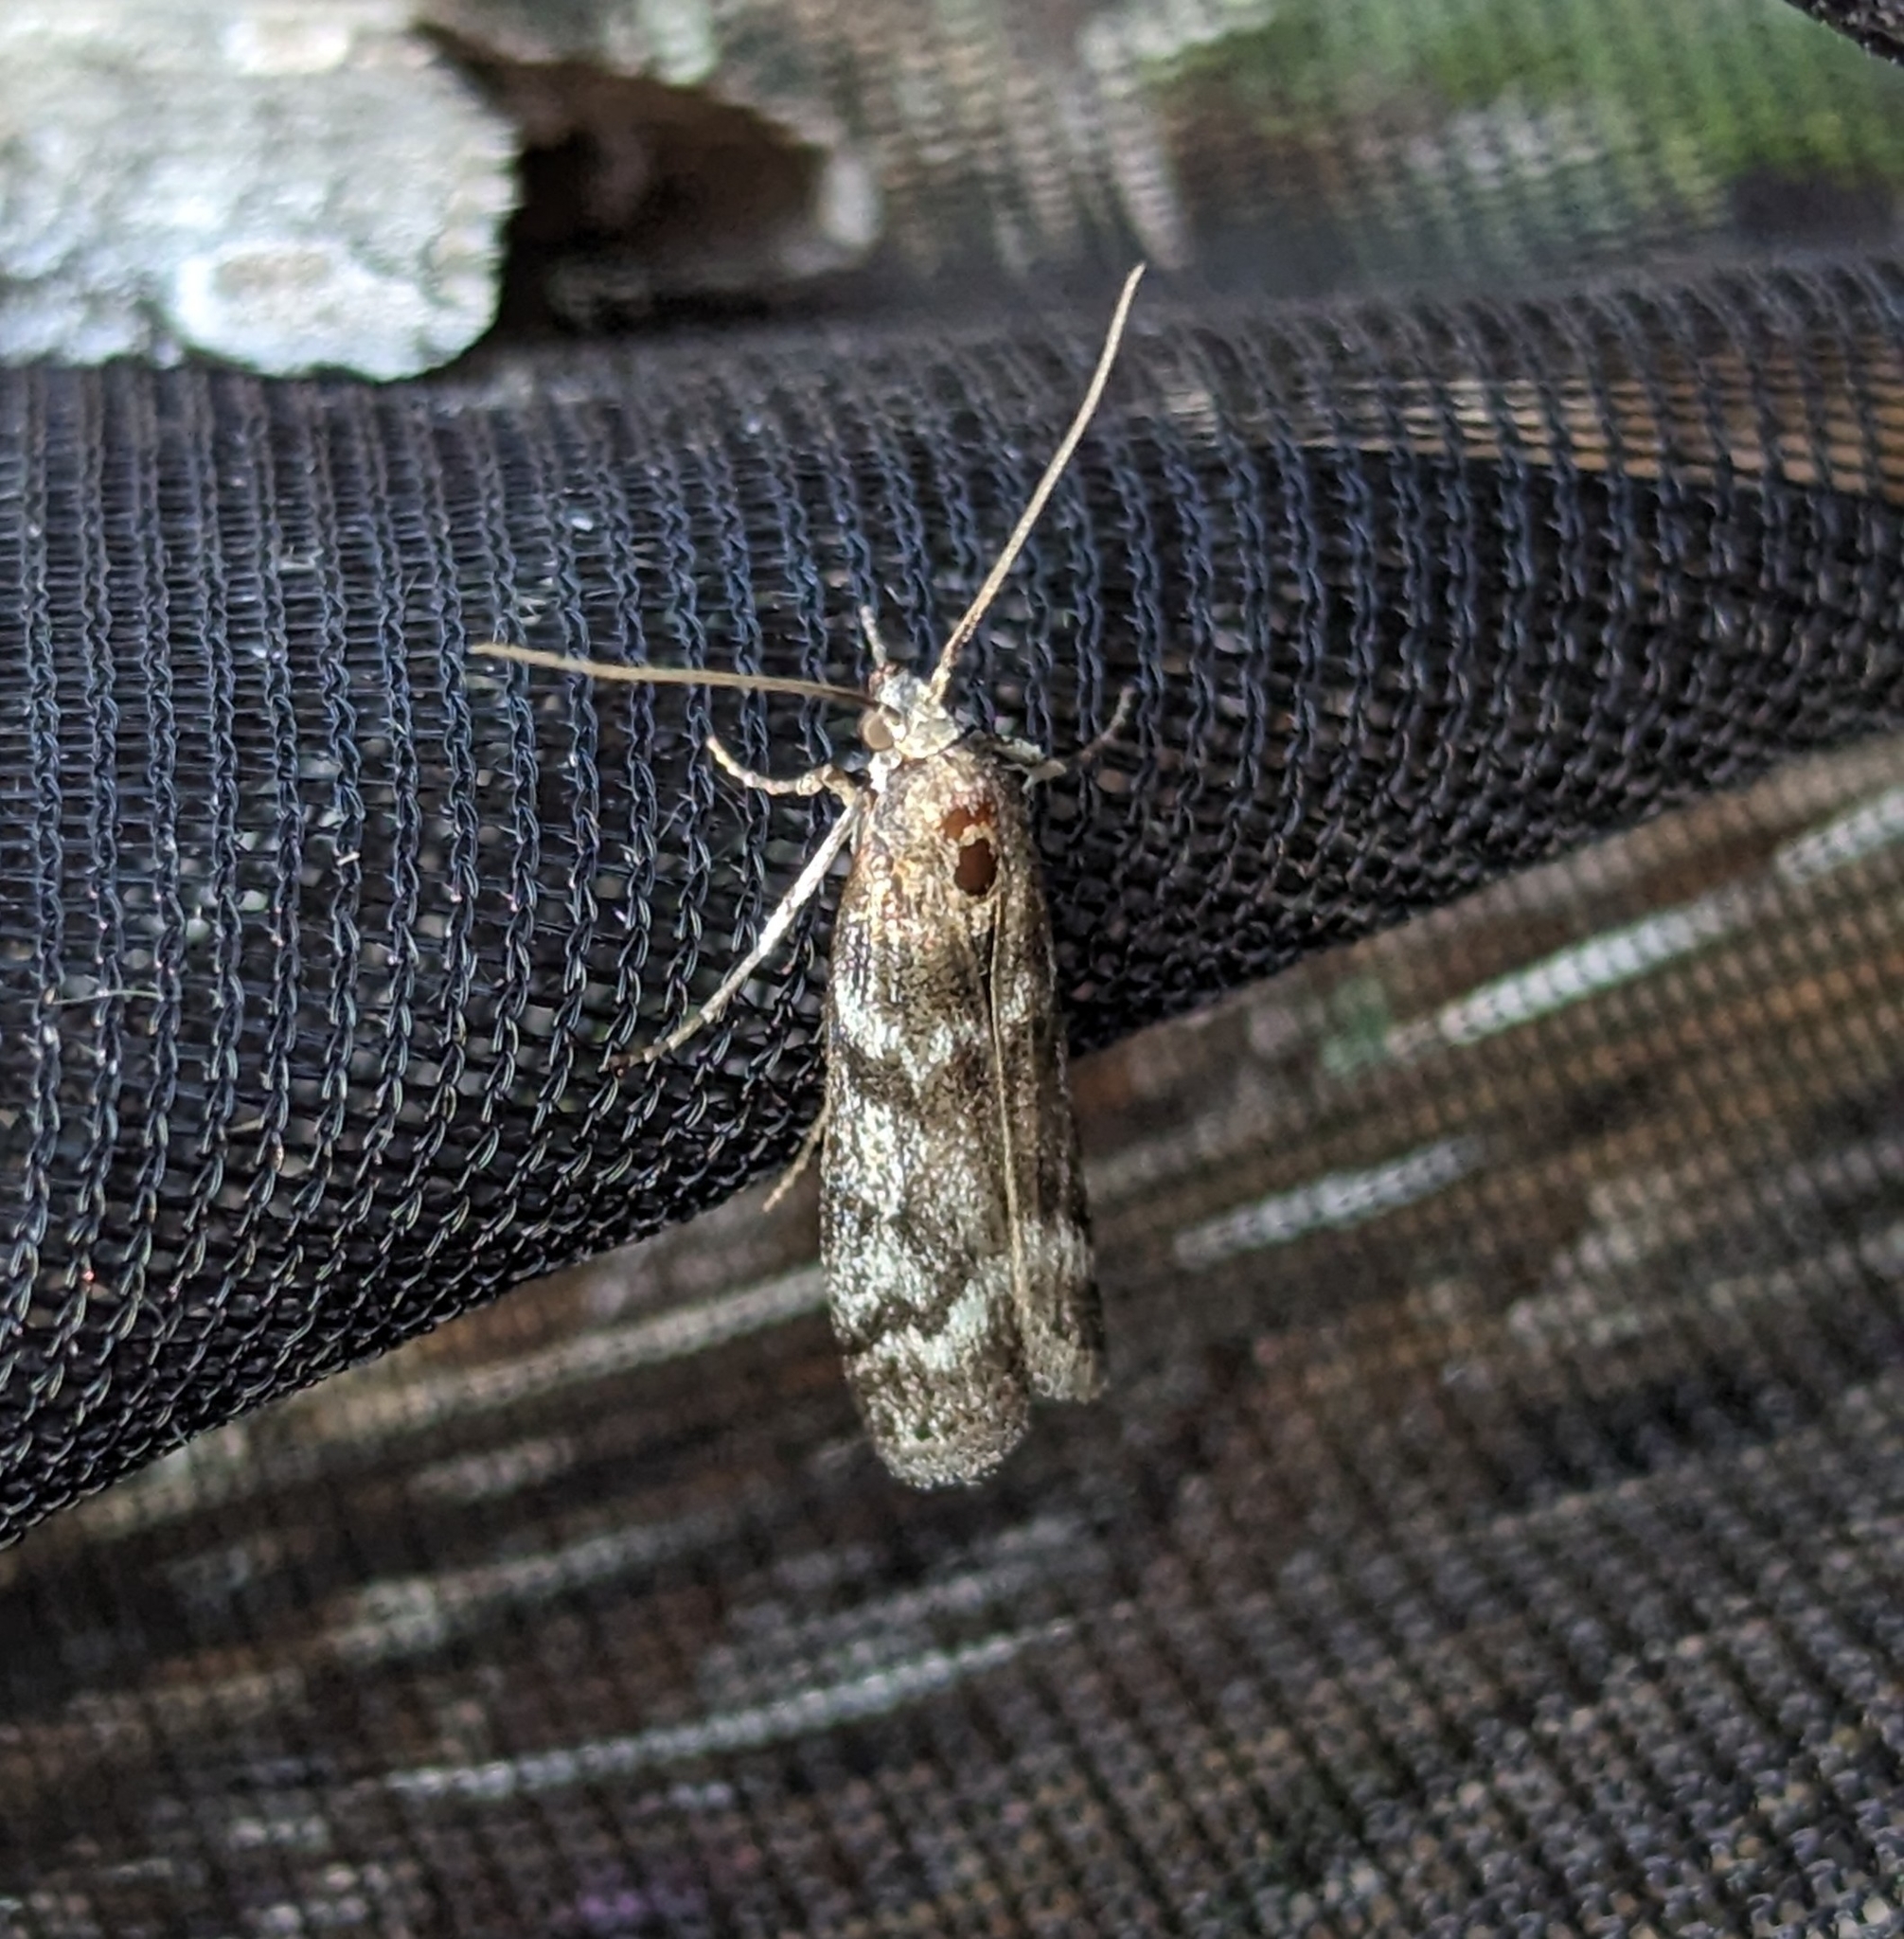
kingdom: Animalia
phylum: Arthropoda
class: Insecta
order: Lepidoptera
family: Pyralidae
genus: Zophodia
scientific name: Zophodia convolutella
